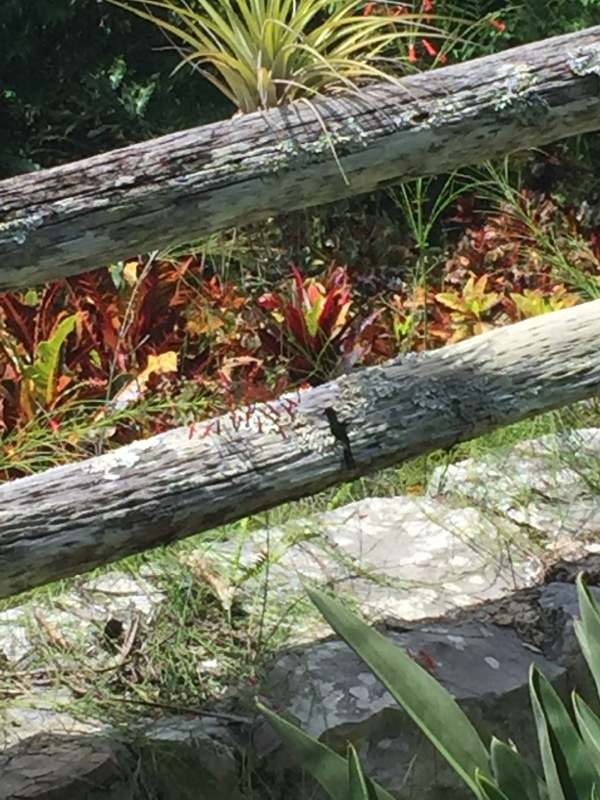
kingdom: Animalia
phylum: Chordata
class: Aves
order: Apodiformes
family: Trochilidae
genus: Riccordia
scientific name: Riccordia ricordii
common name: Cuban emerald
